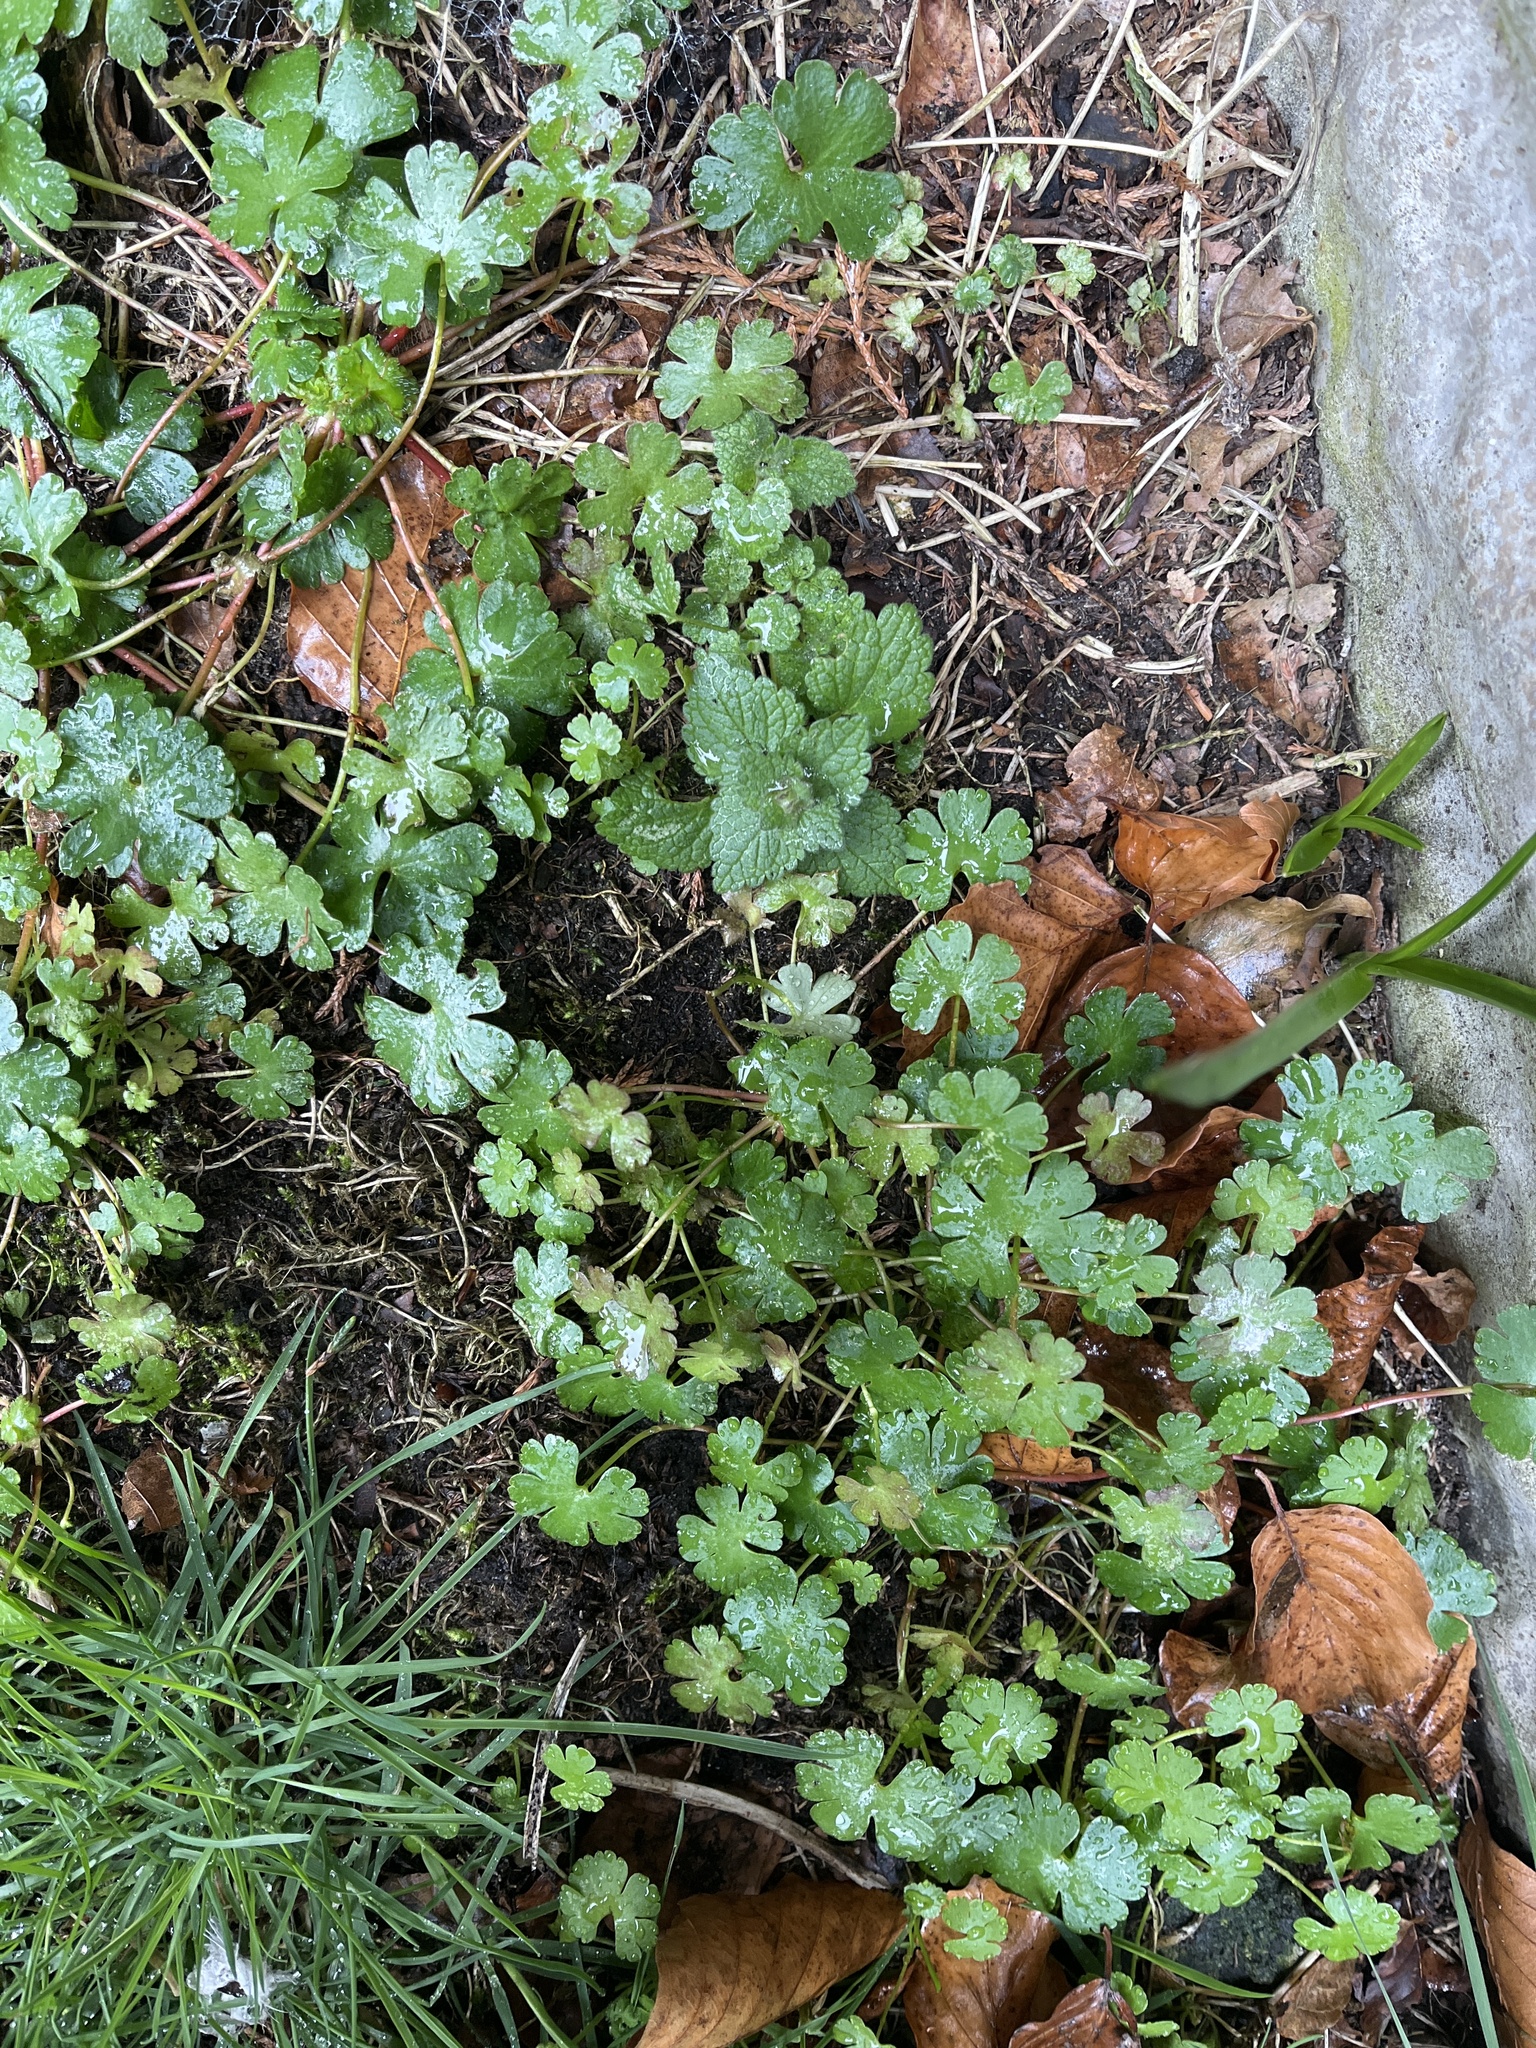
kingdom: Plantae
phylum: Tracheophyta
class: Magnoliopsida
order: Geraniales
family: Geraniaceae
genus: Geranium
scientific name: Geranium lucidum
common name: Shining crane's-bill
